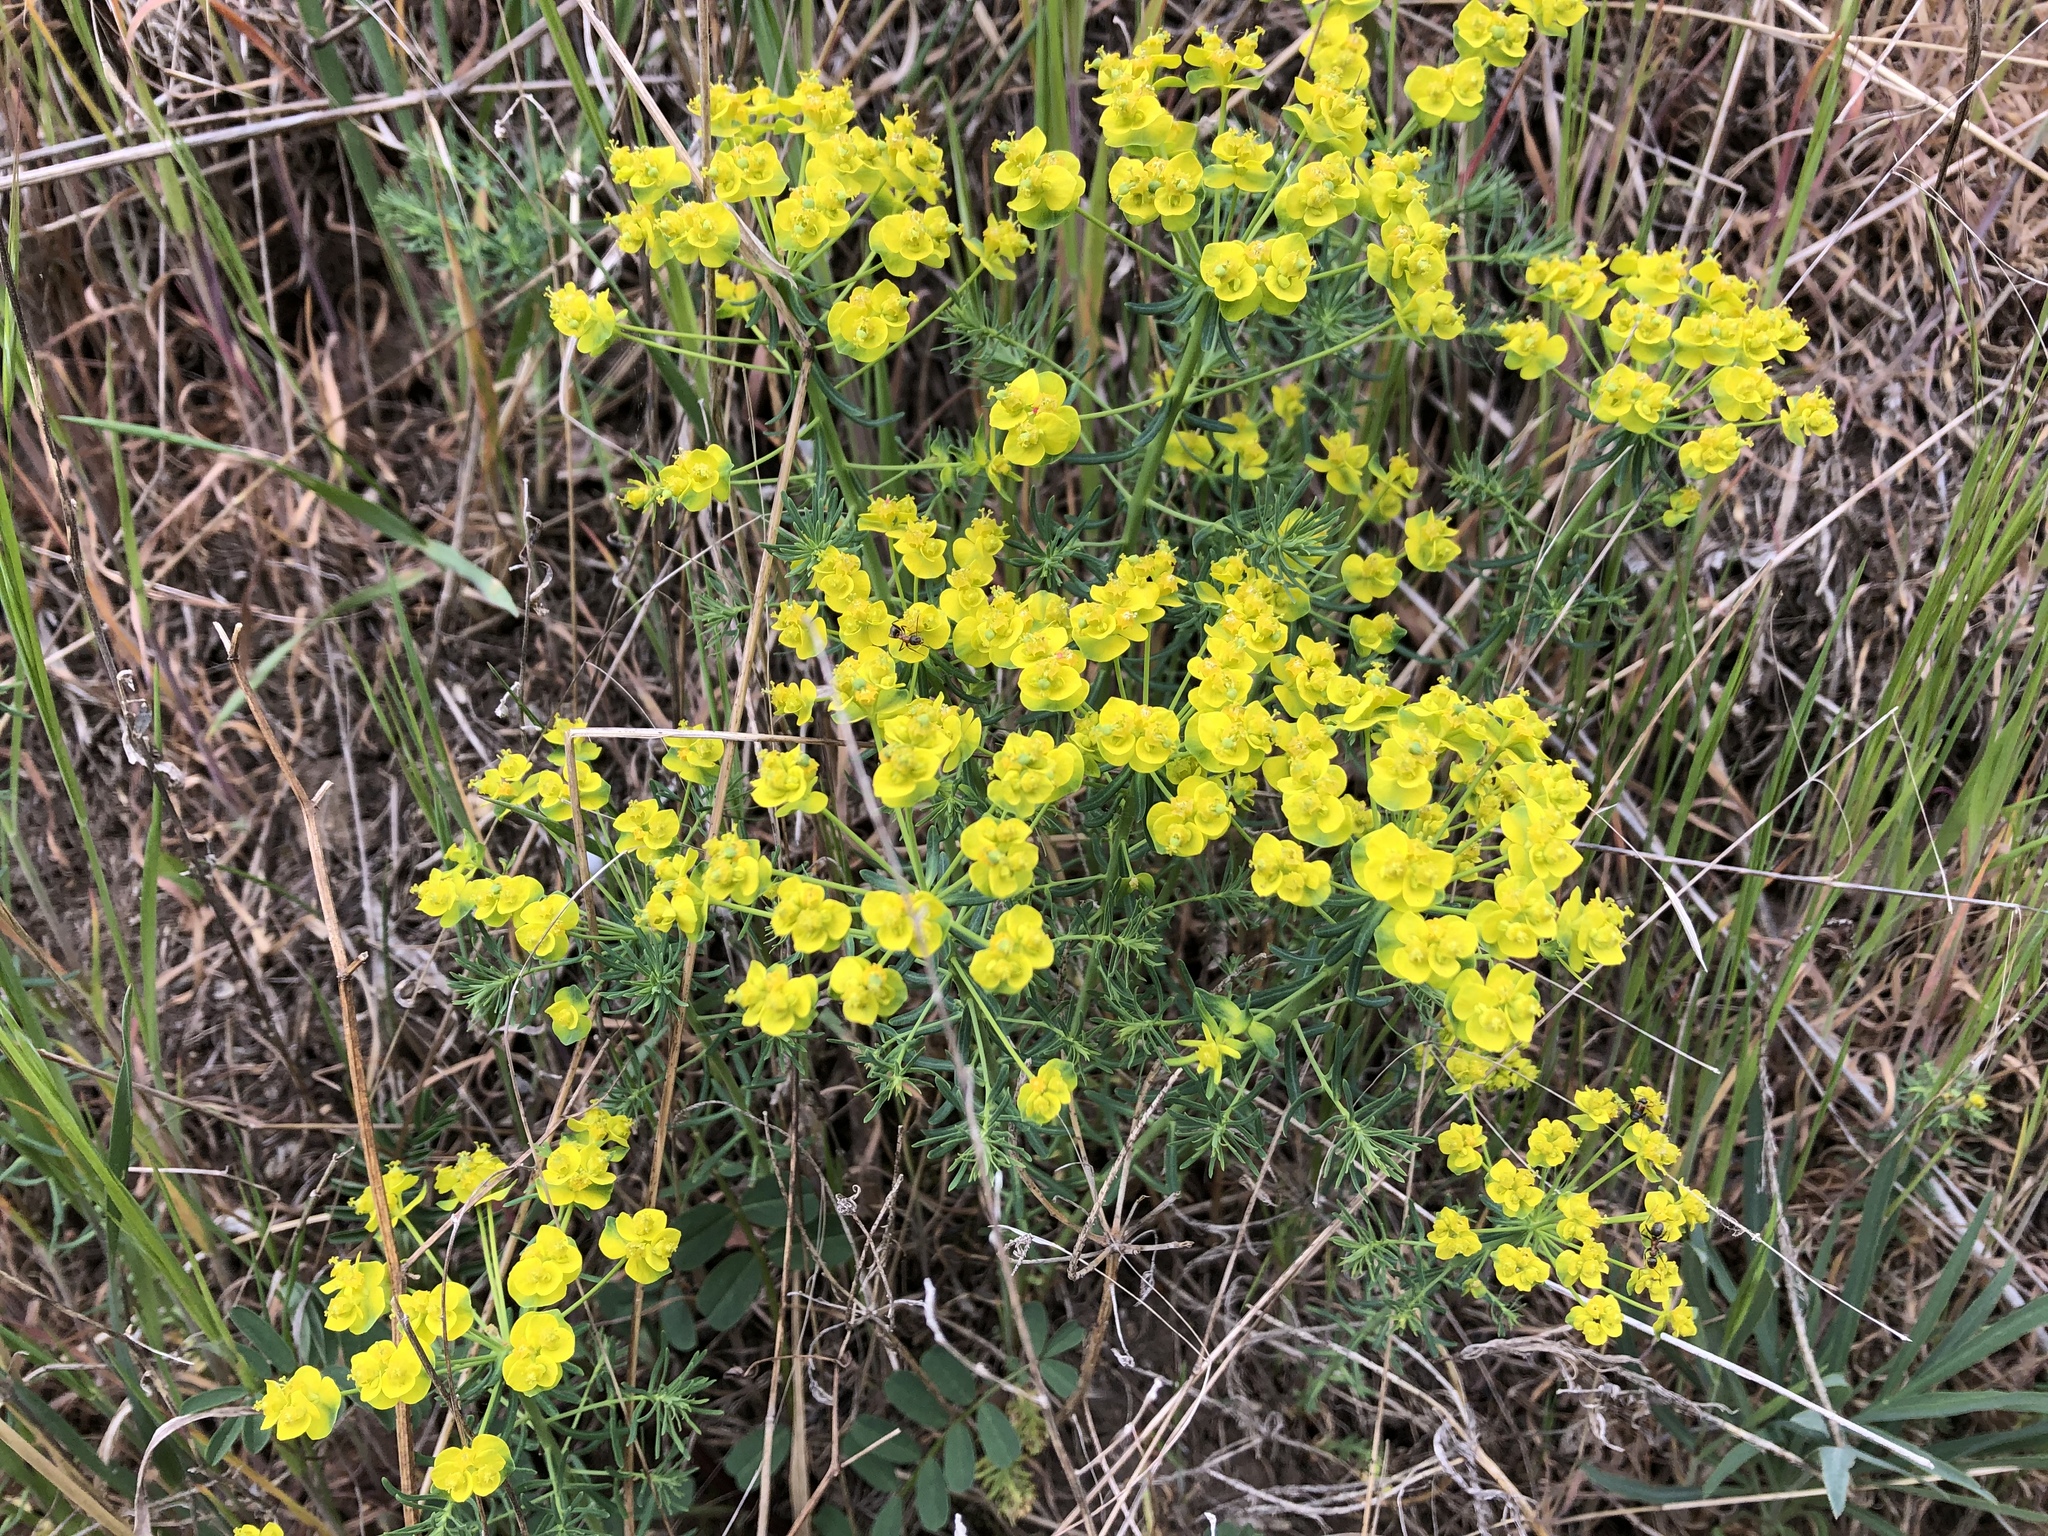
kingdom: Plantae
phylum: Tracheophyta
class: Magnoliopsida
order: Malpighiales
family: Euphorbiaceae
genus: Euphorbia
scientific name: Euphorbia cyparissias
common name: Cypress spurge
